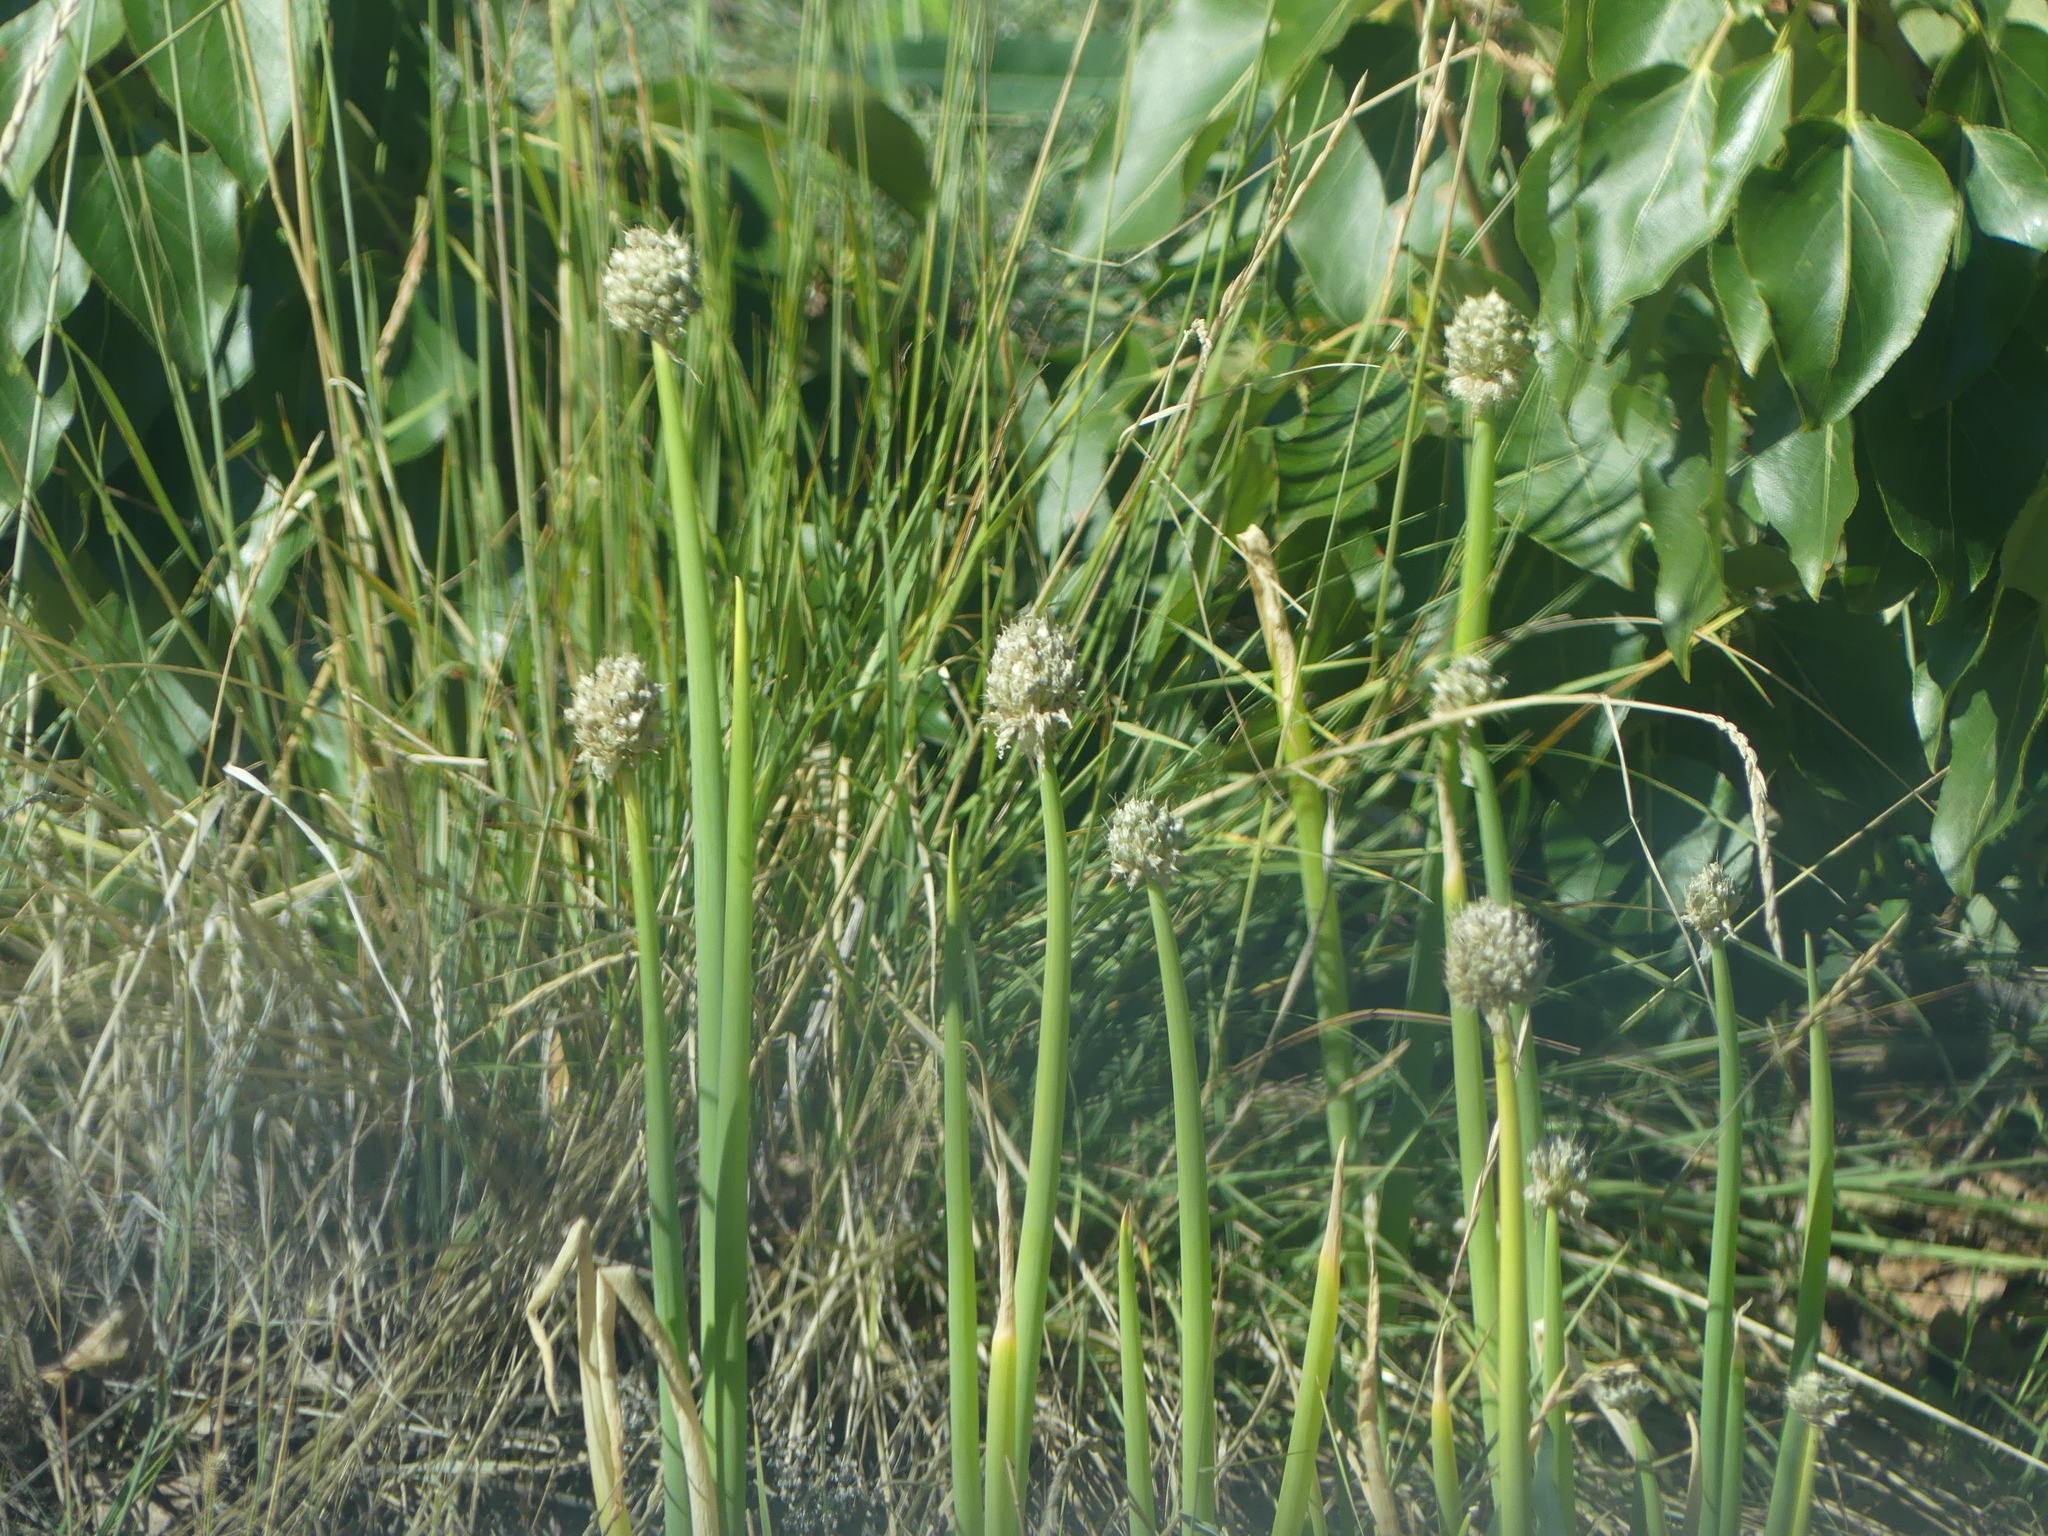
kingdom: Plantae
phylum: Tracheophyta
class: Liliopsida
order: Asparagales
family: Amaryllidaceae
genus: Allium
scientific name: Allium fistulosum
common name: Welsh onion
